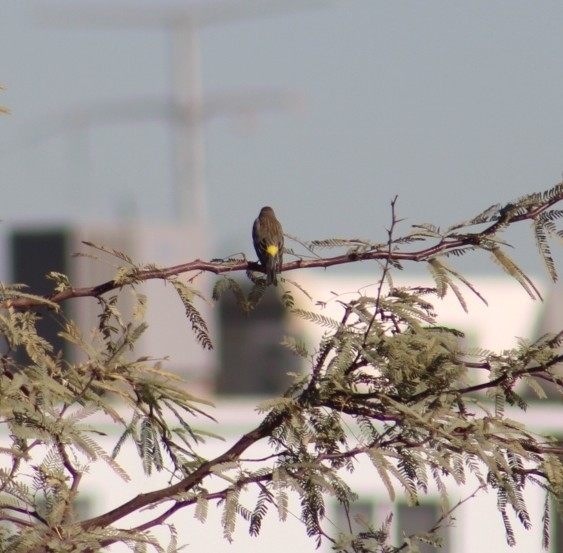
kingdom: Animalia
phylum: Chordata
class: Aves
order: Passeriformes
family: Parulidae
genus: Setophaga
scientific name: Setophaga coronata
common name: Myrtle warbler
